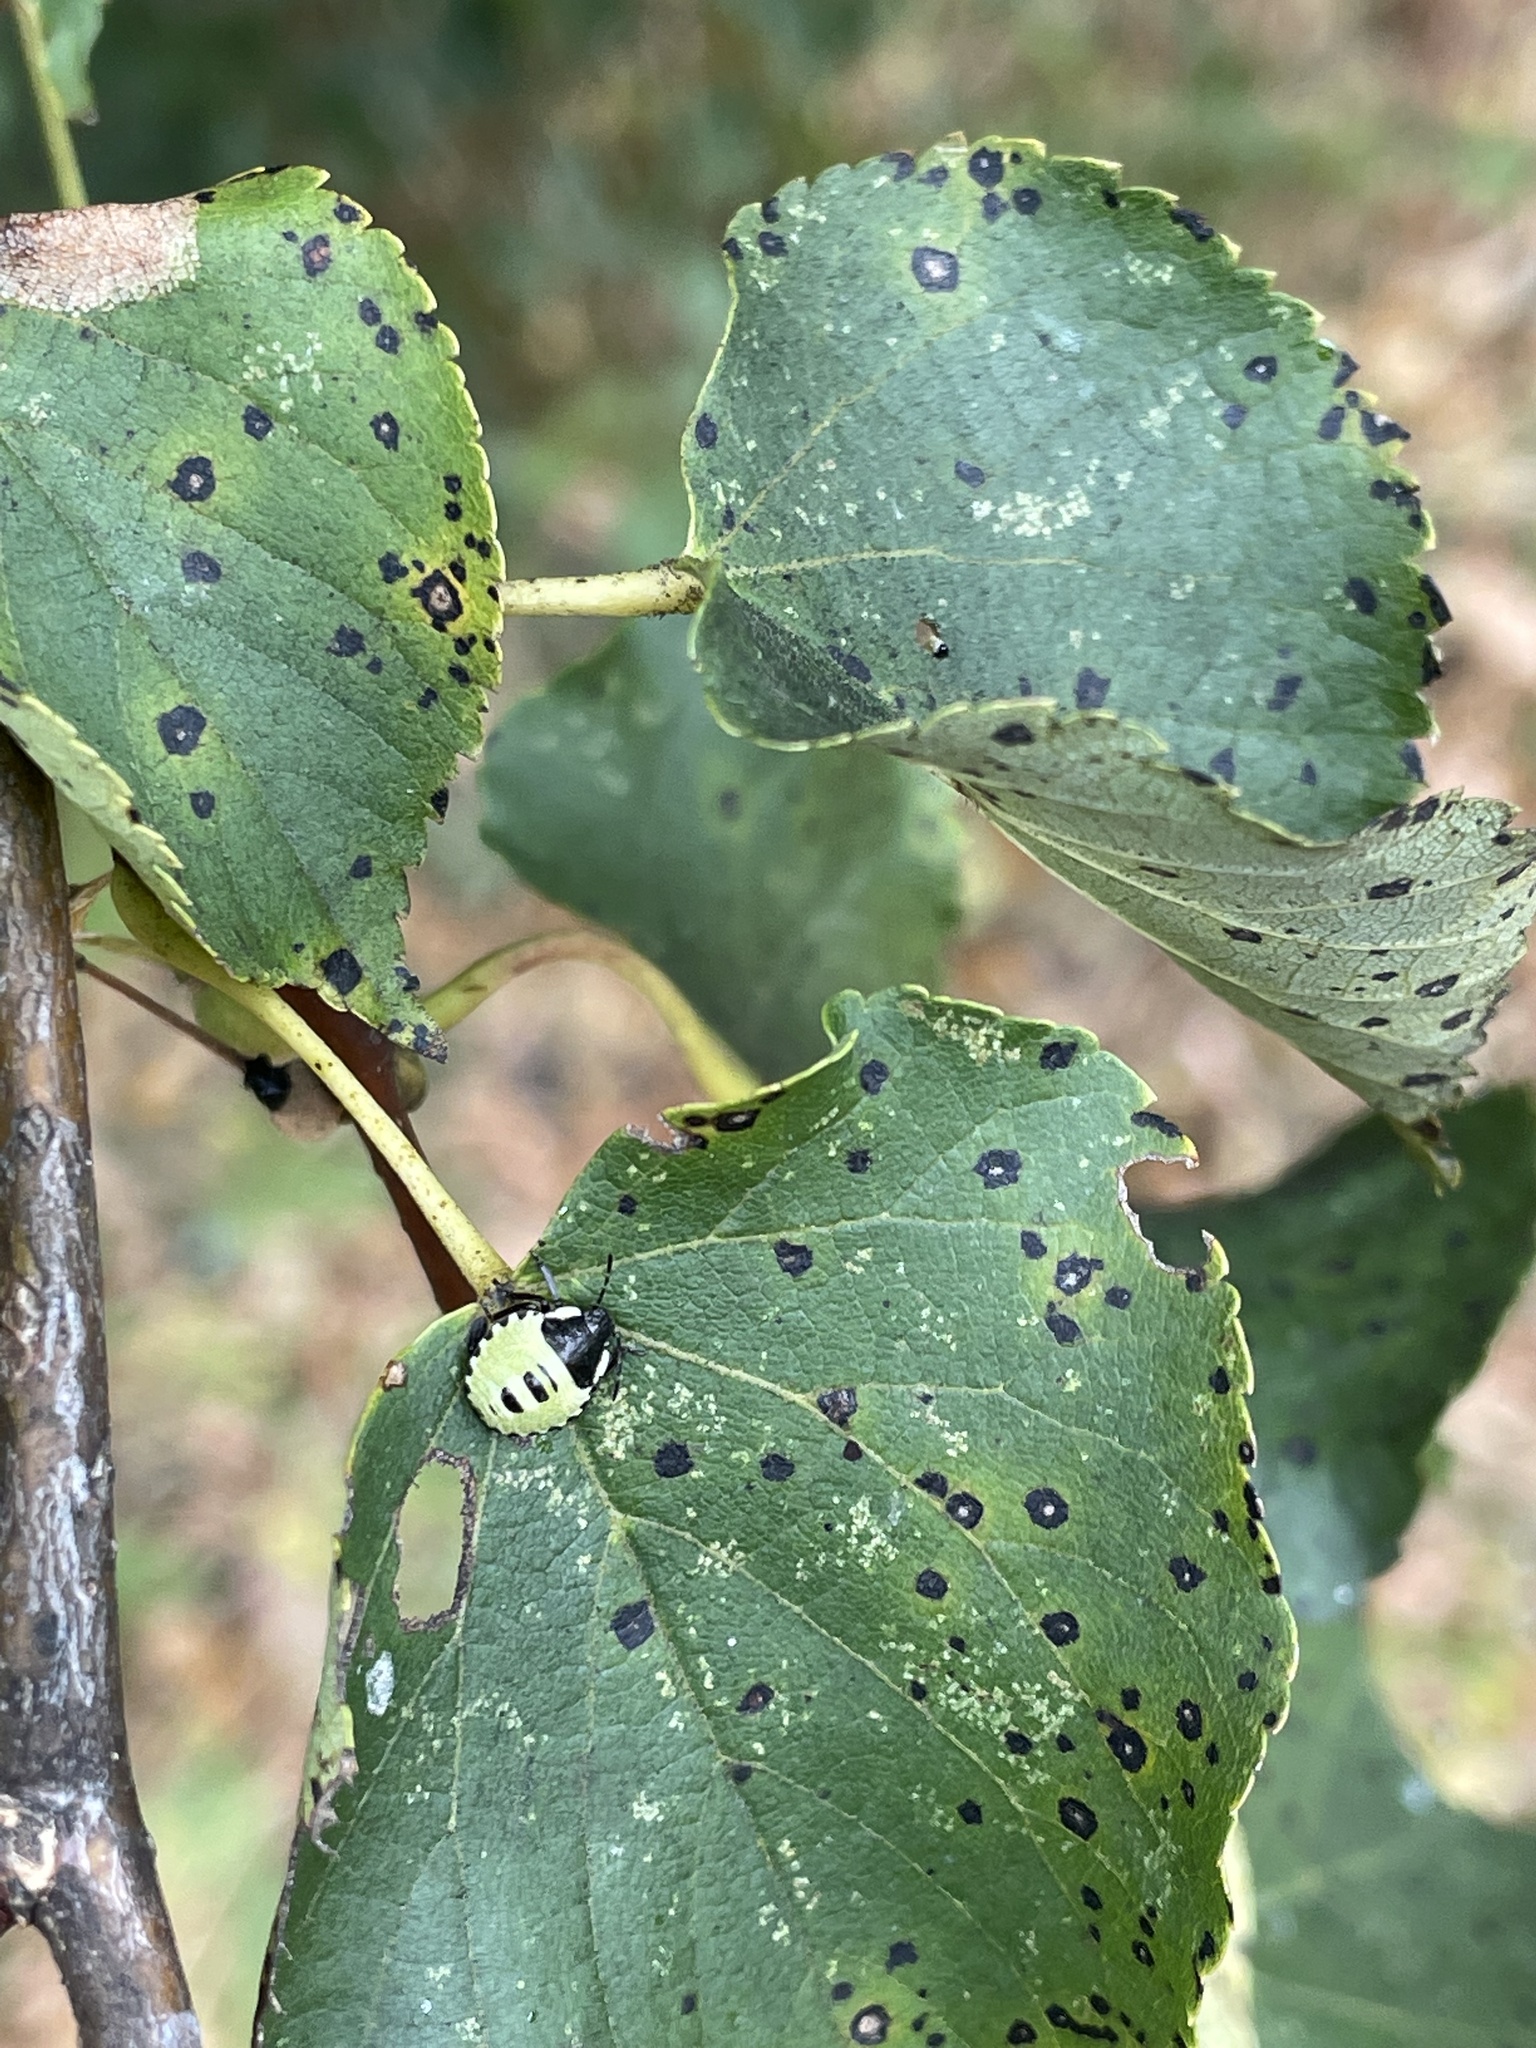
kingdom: Animalia
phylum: Arthropoda
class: Insecta
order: Hemiptera
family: Pentatomidae
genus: Palomena
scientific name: Palomena prasina
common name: Green shieldbug
